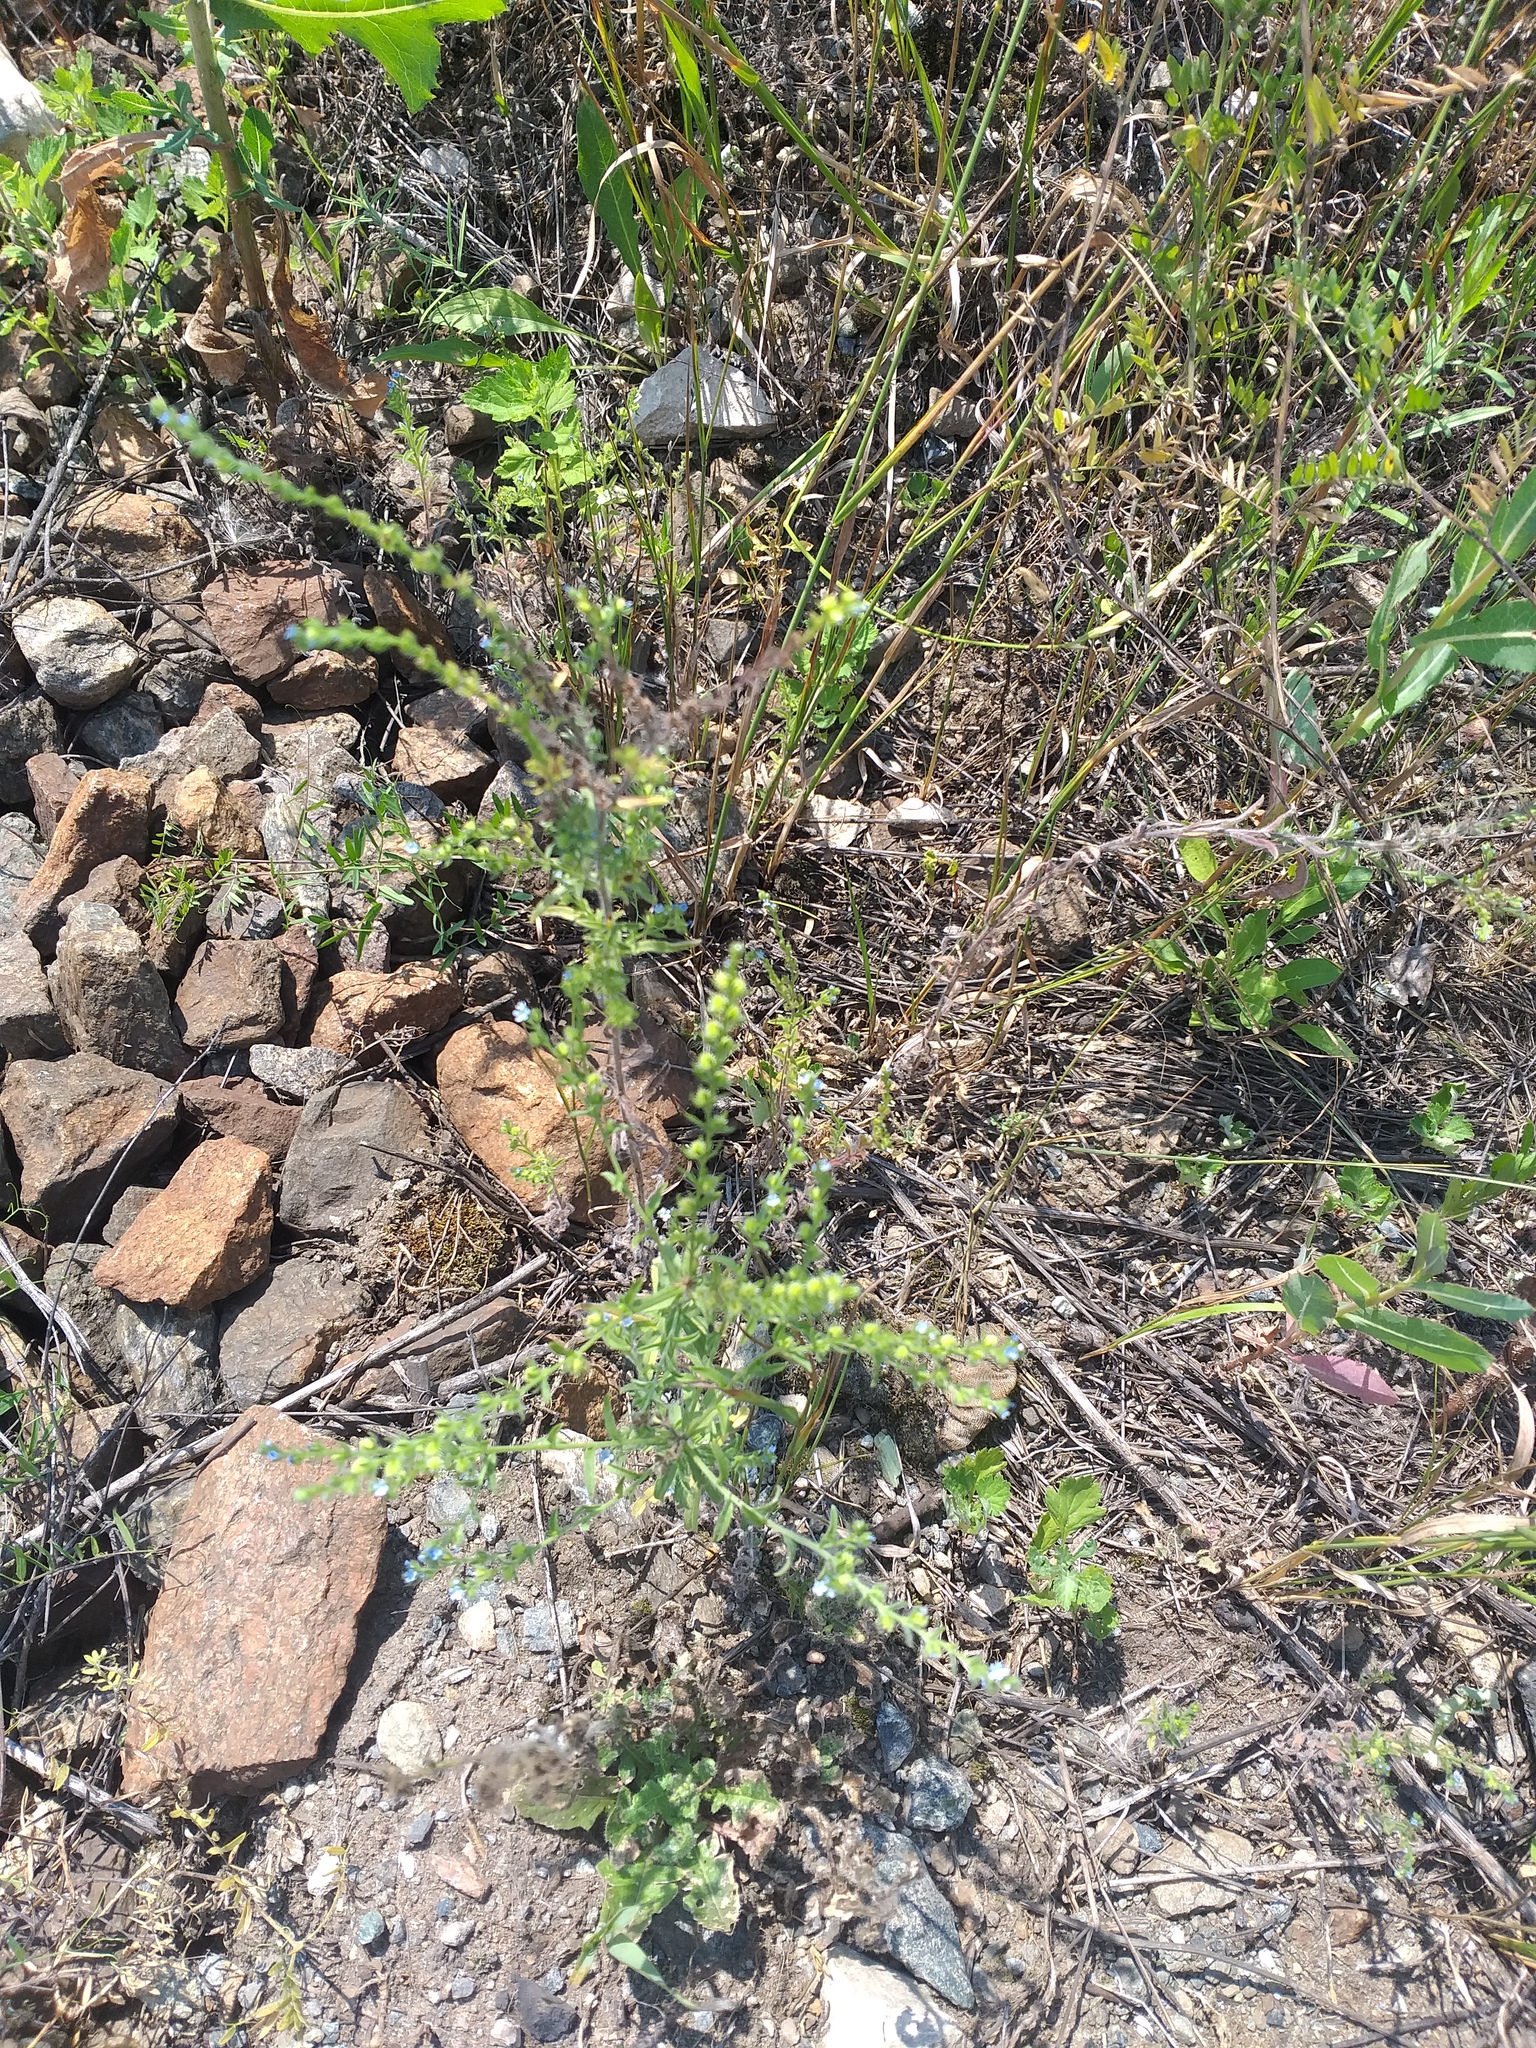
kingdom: Plantae
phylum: Tracheophyta
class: Magnoliopsida
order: Boraginales
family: Boraginaceae
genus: Lappula
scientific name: Lappula squarrosa
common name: European stickseed
